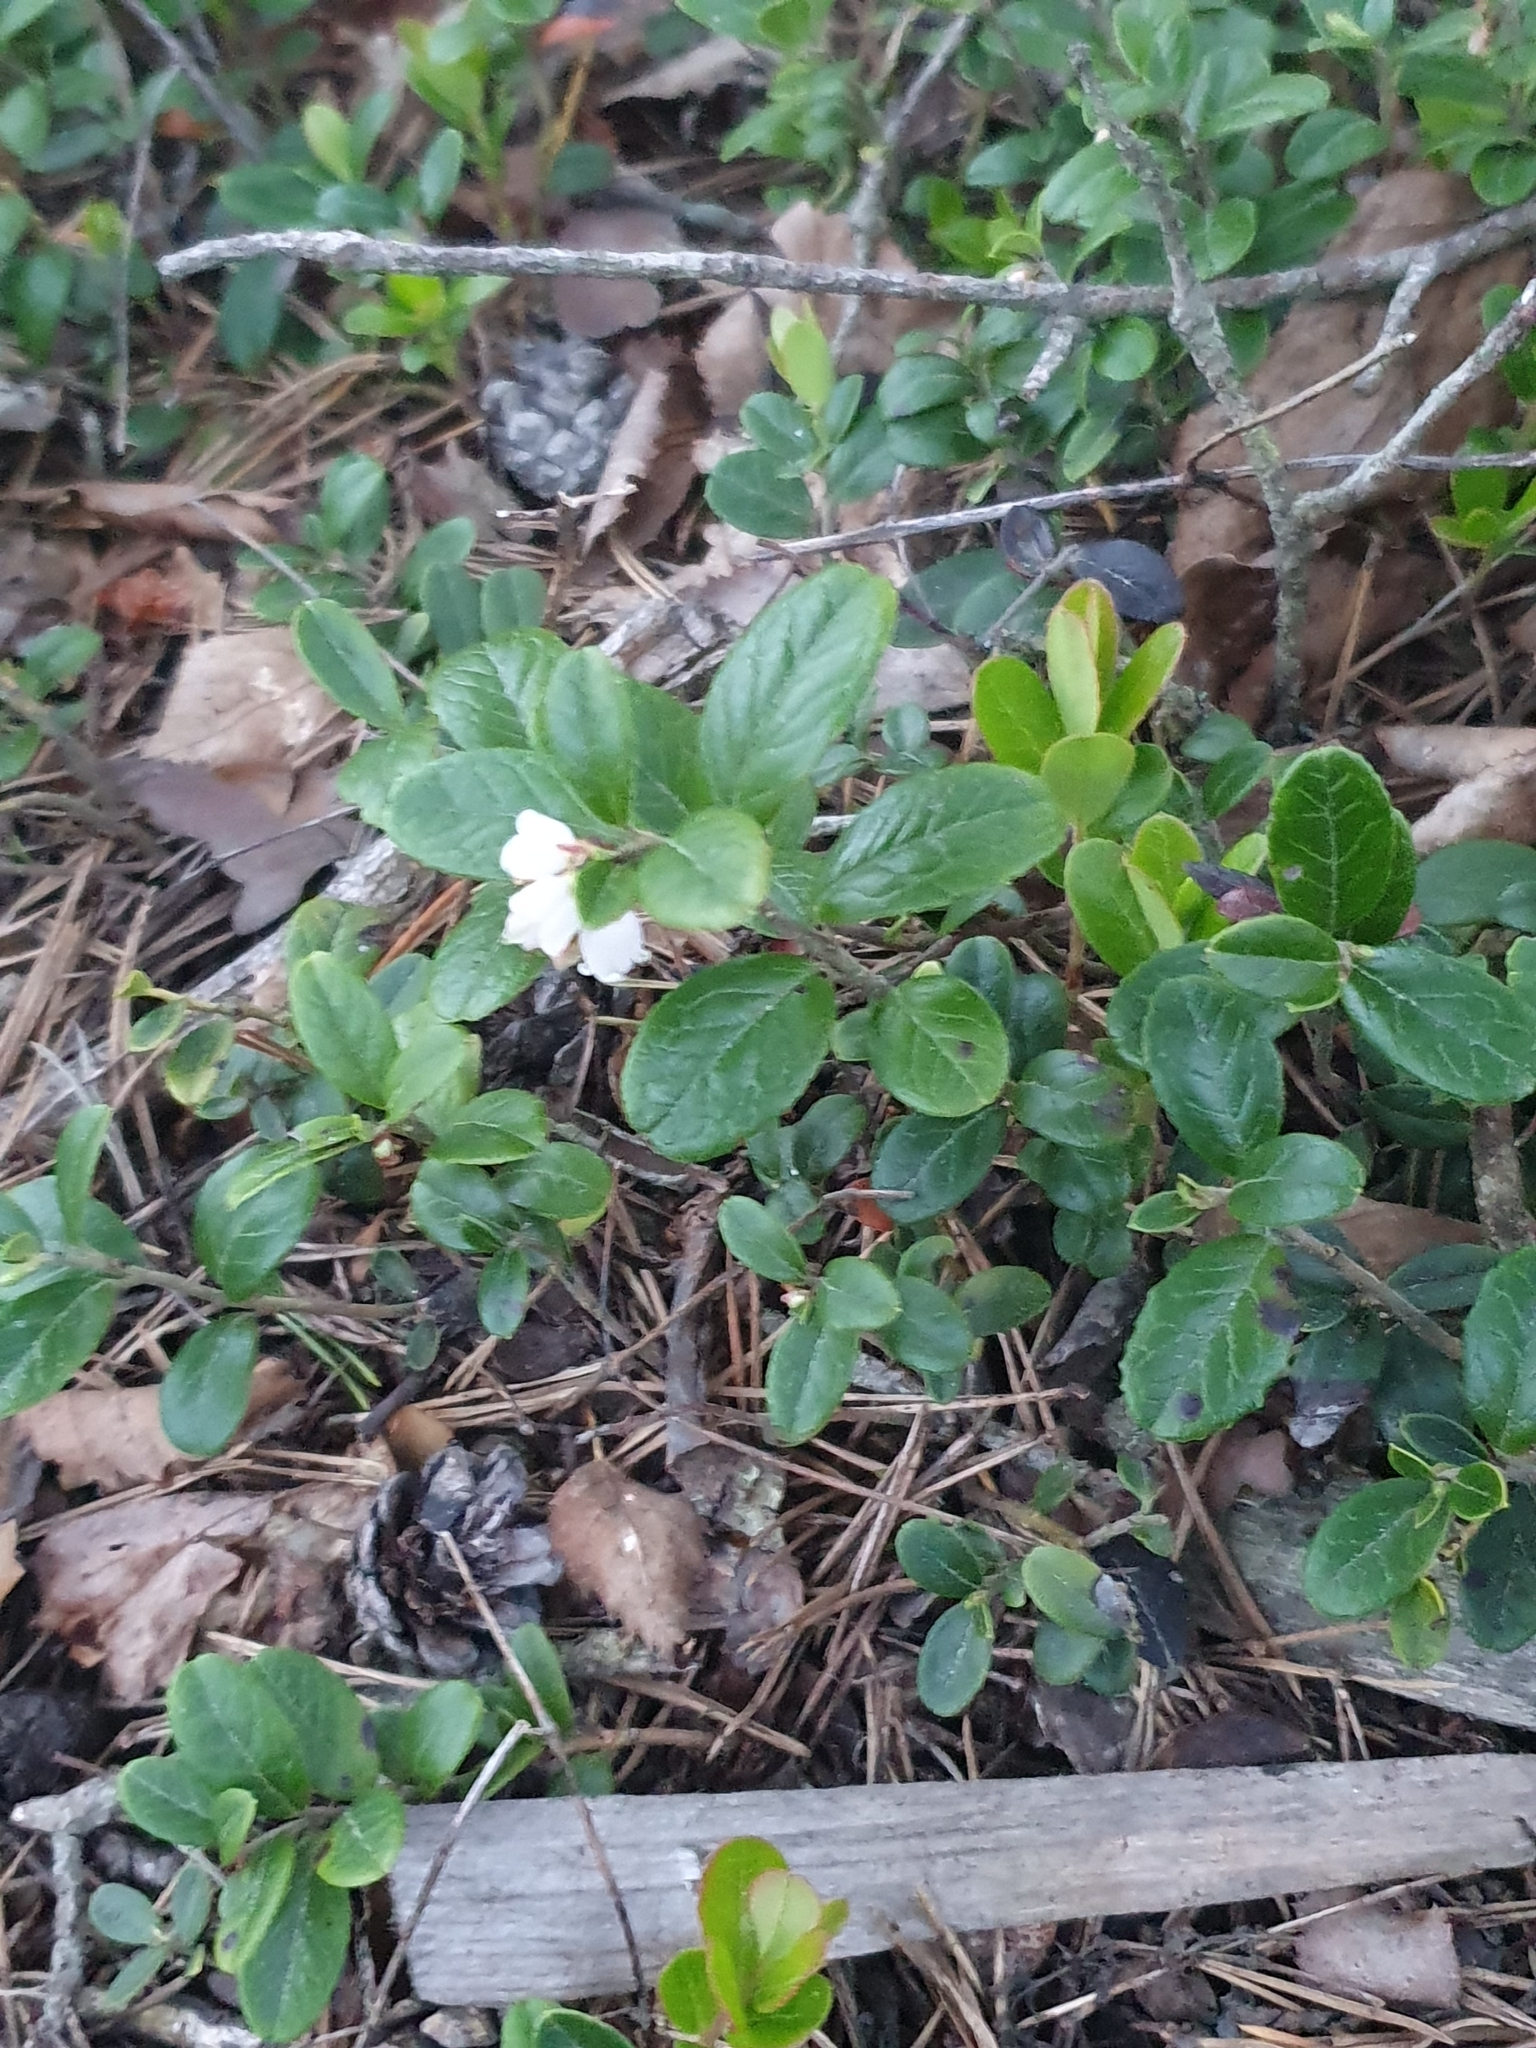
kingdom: Plantae
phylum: Tracheophyta
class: Magnoliopsida
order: Ericales
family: Ericaceae
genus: Vaccinium
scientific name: Vaccinium vitis-idaea
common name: Cowberry
